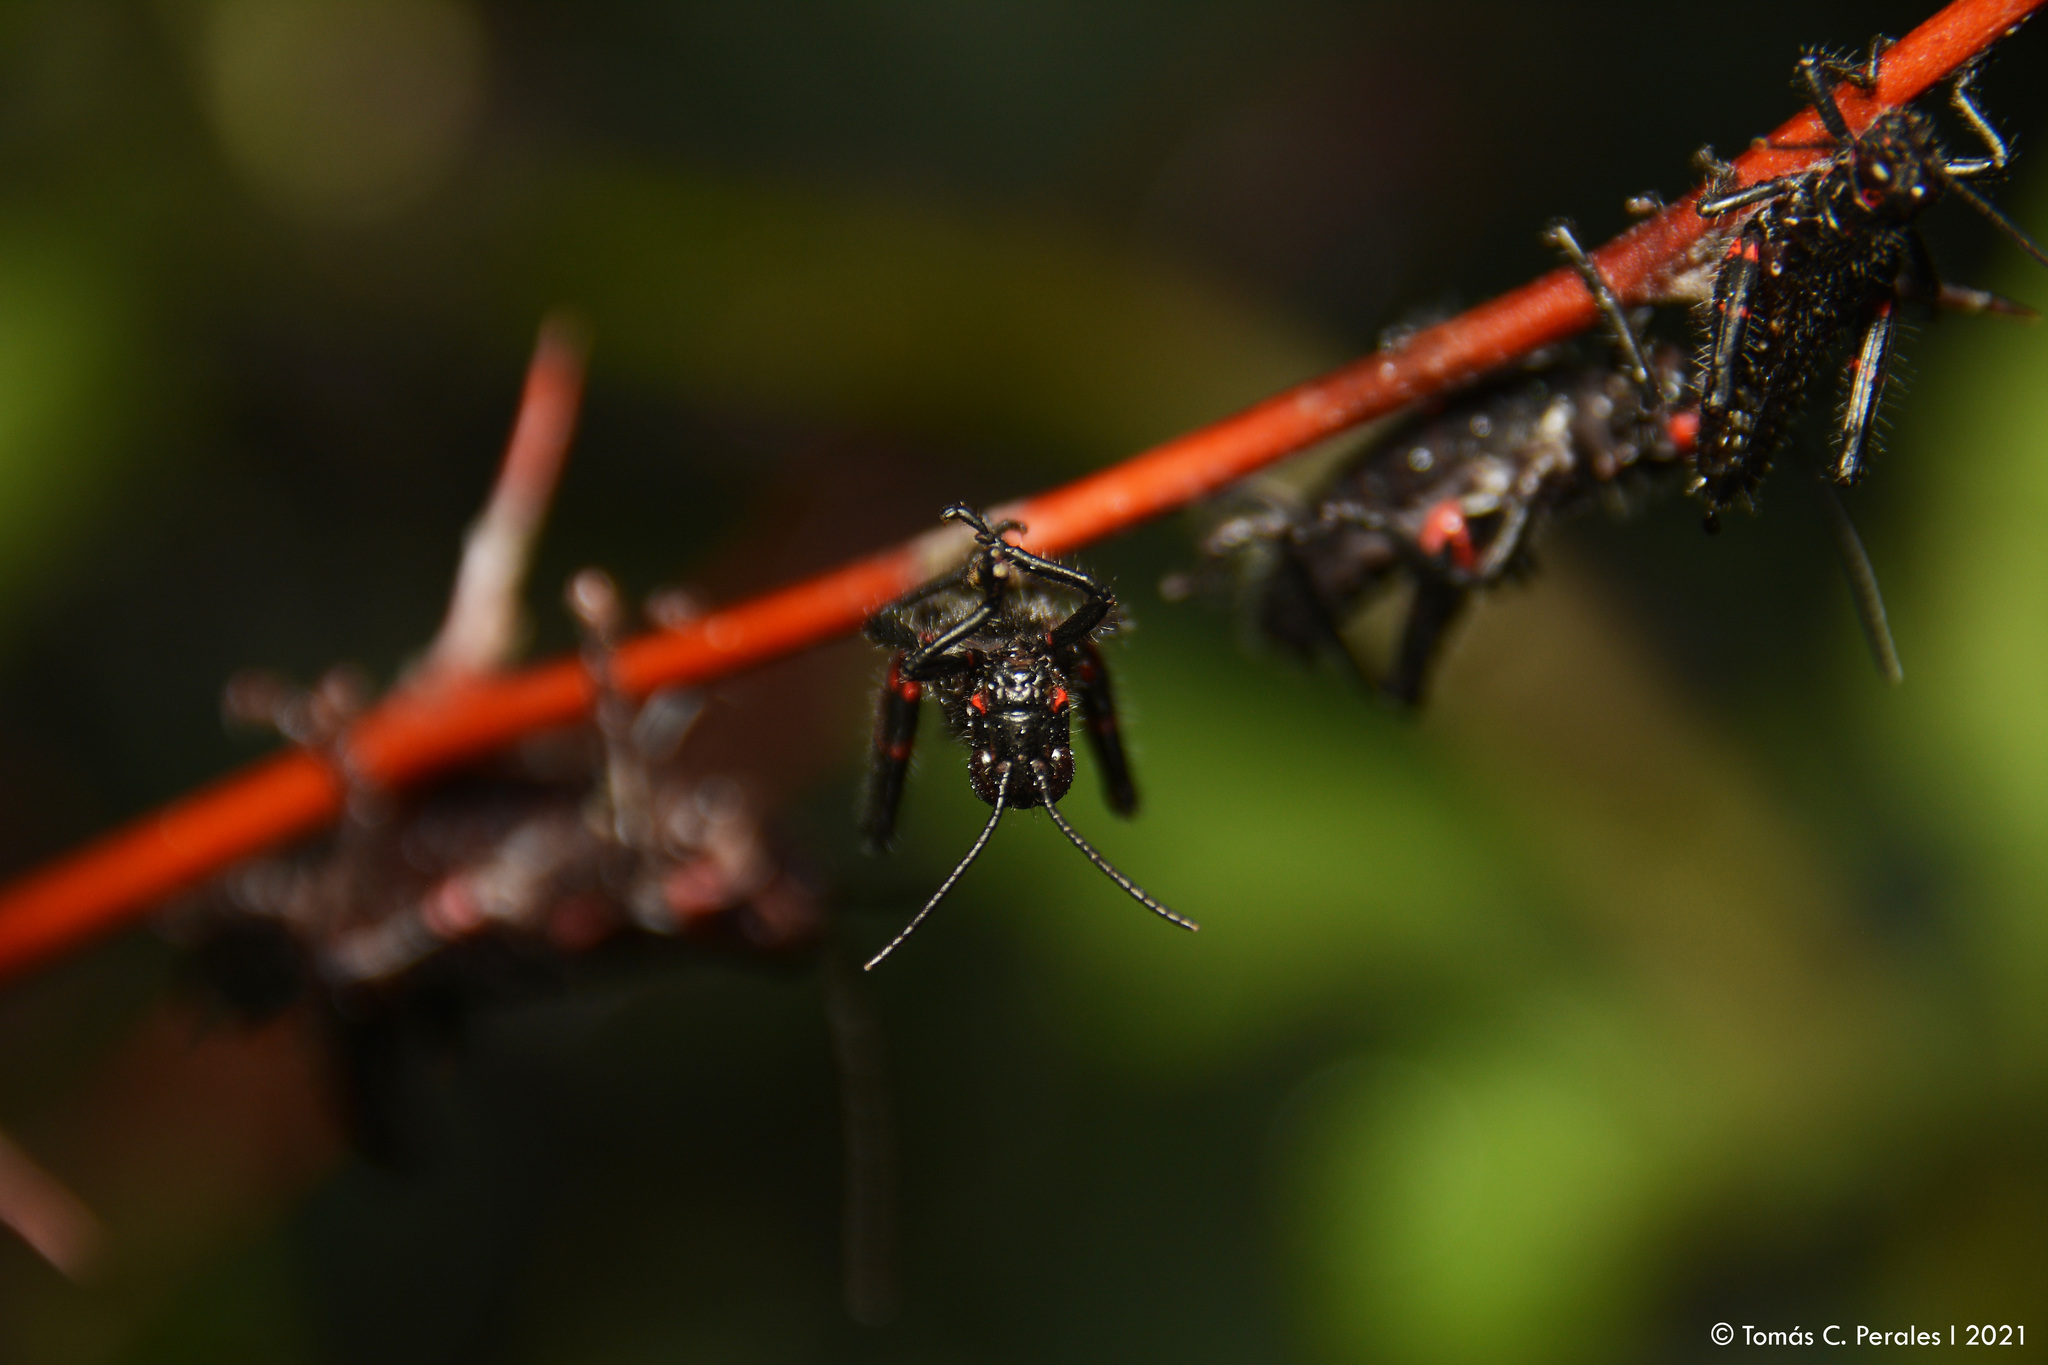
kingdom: Animalia
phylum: Arthropoda
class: Insecta
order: Orthoptera
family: Romaleidae
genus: Chromacris
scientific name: Chromacris speciosa
